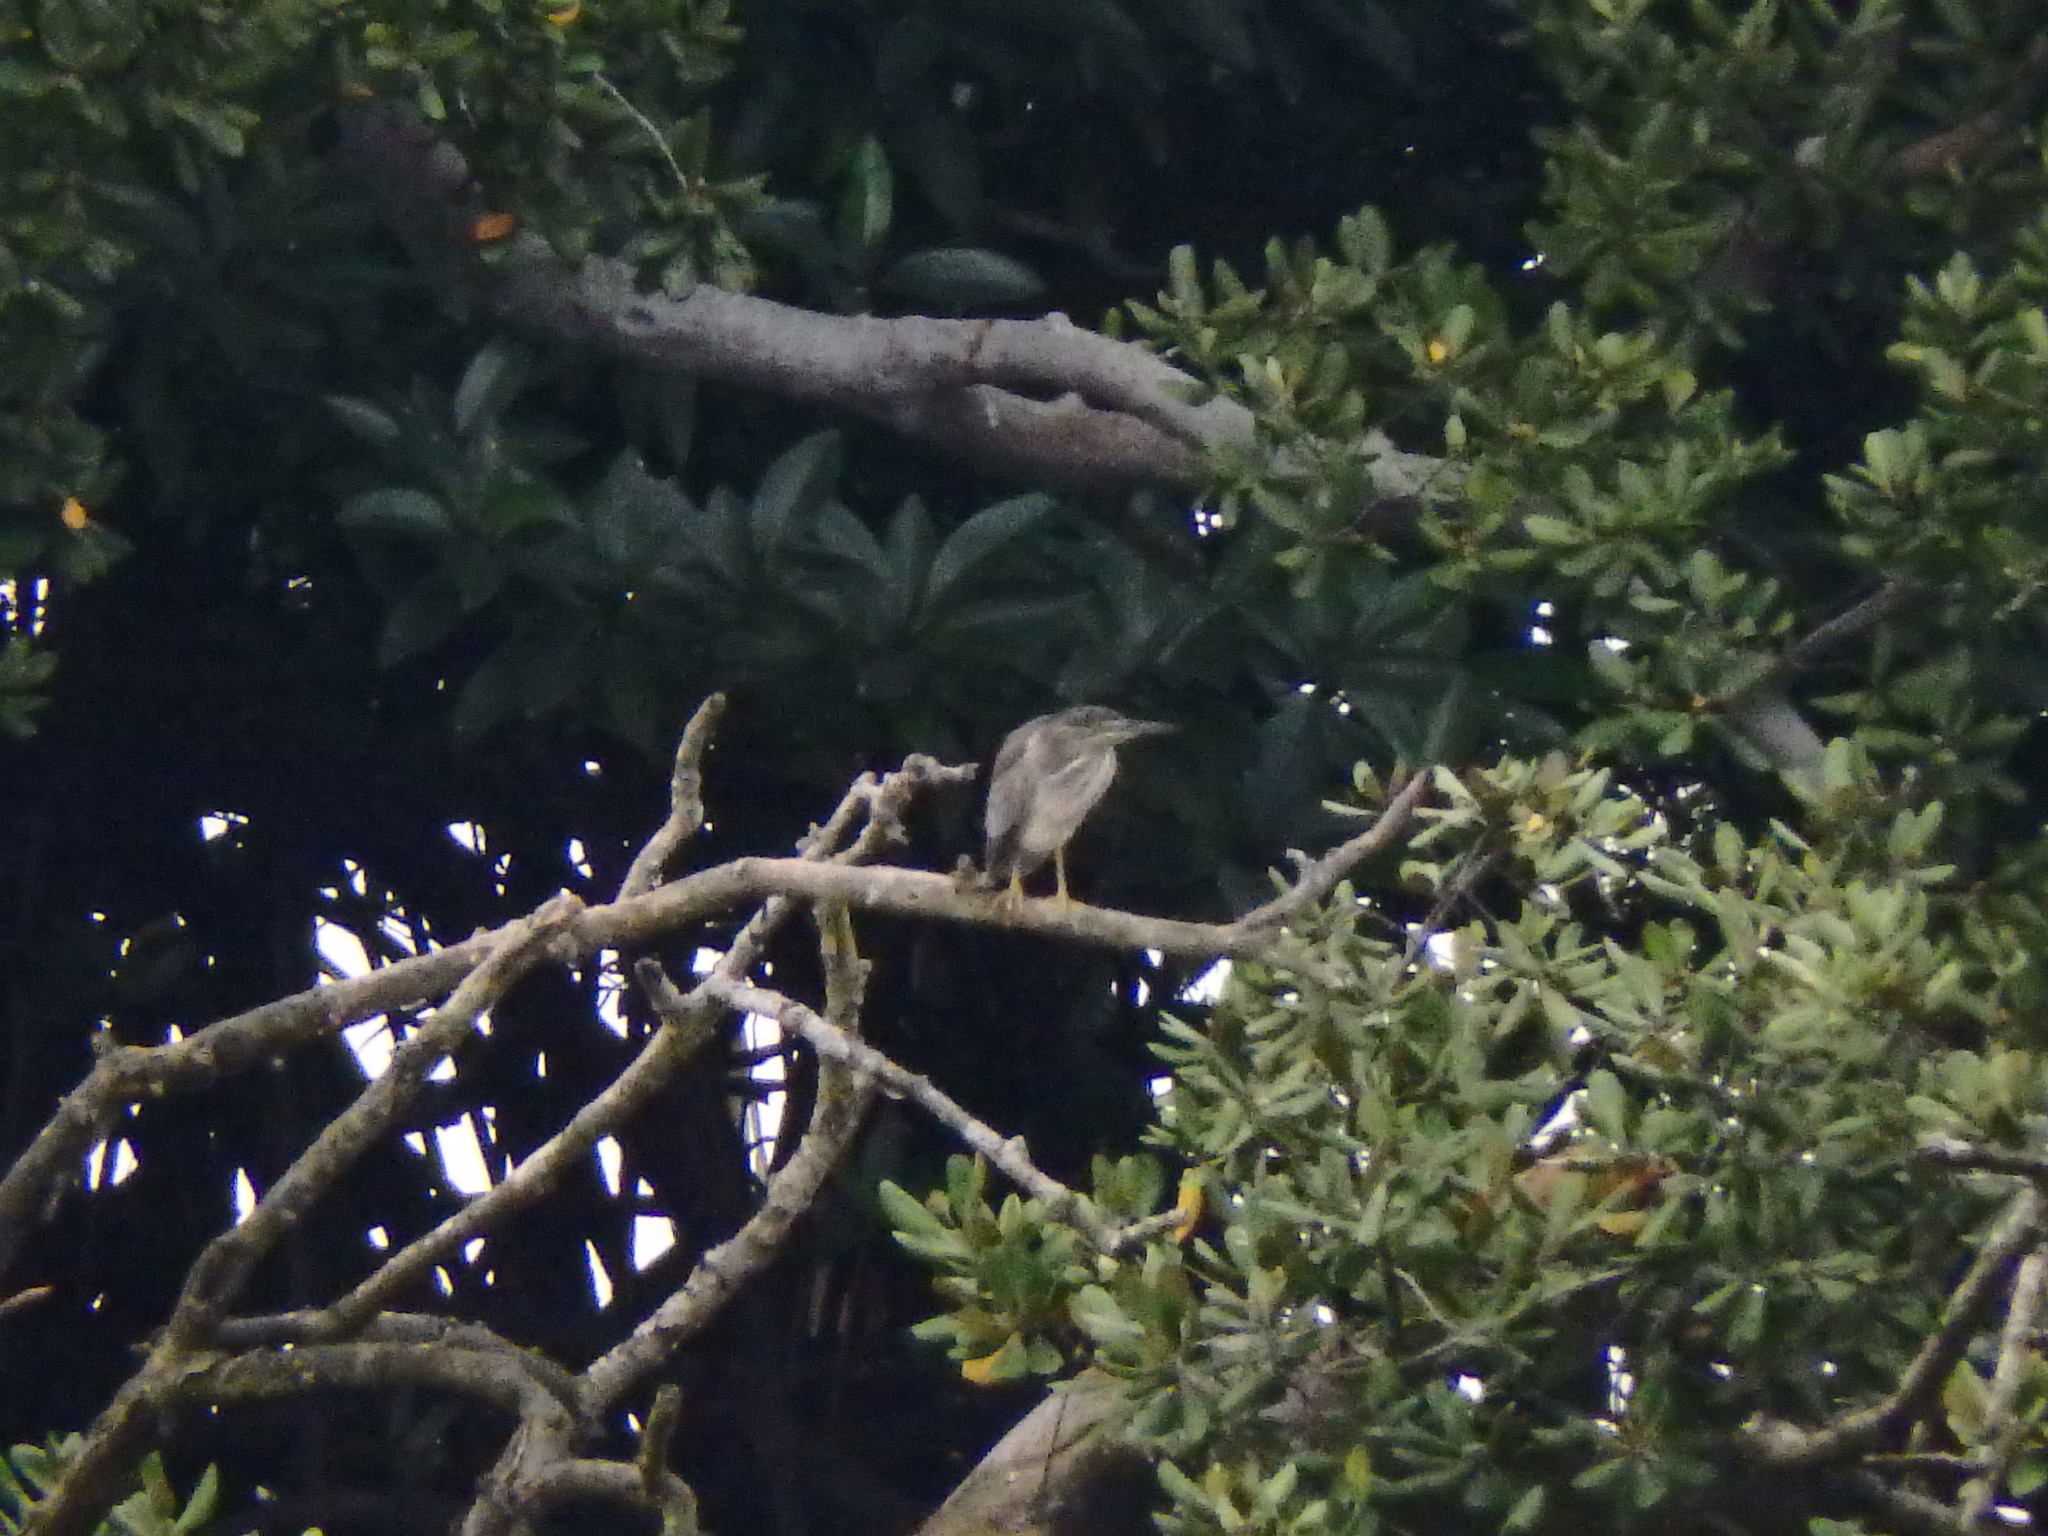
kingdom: Animalia
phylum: Chordata
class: Aves
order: Pelecaniformes
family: Ardeidae
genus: Butorides
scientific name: Butorides striata
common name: Striated heron
